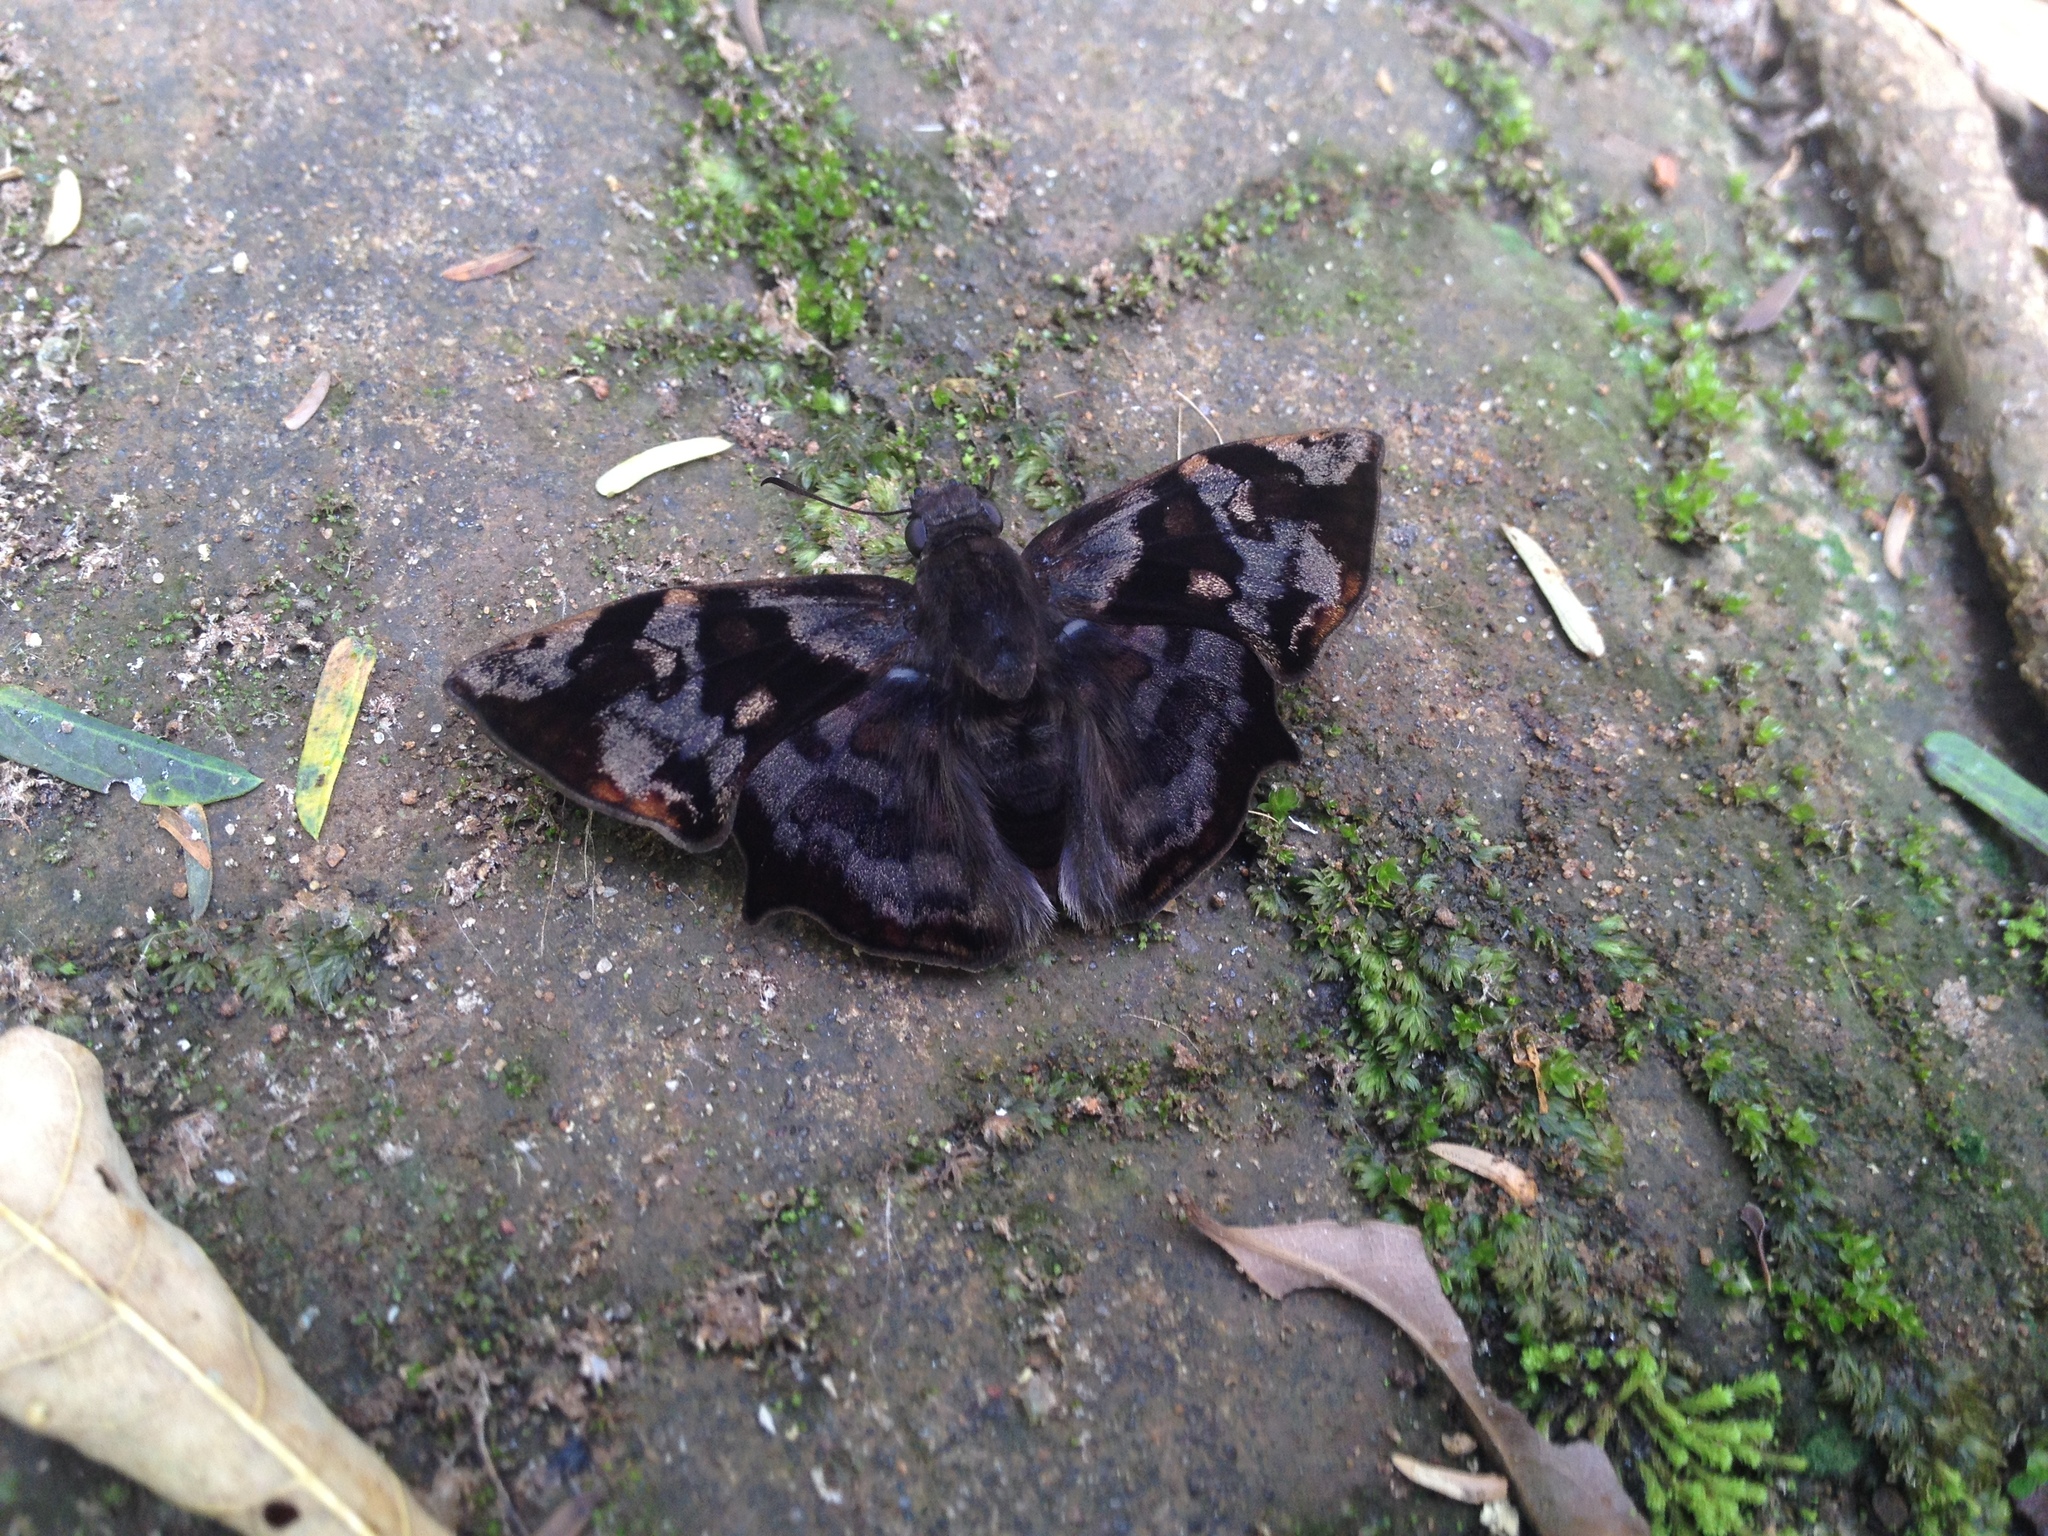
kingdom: Animalia
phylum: Arthropoda
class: Insecta
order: Lepidoptera
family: Hesperiidae
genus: Antigonus
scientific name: Antigonus nearchus
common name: Death-mask spurwing
